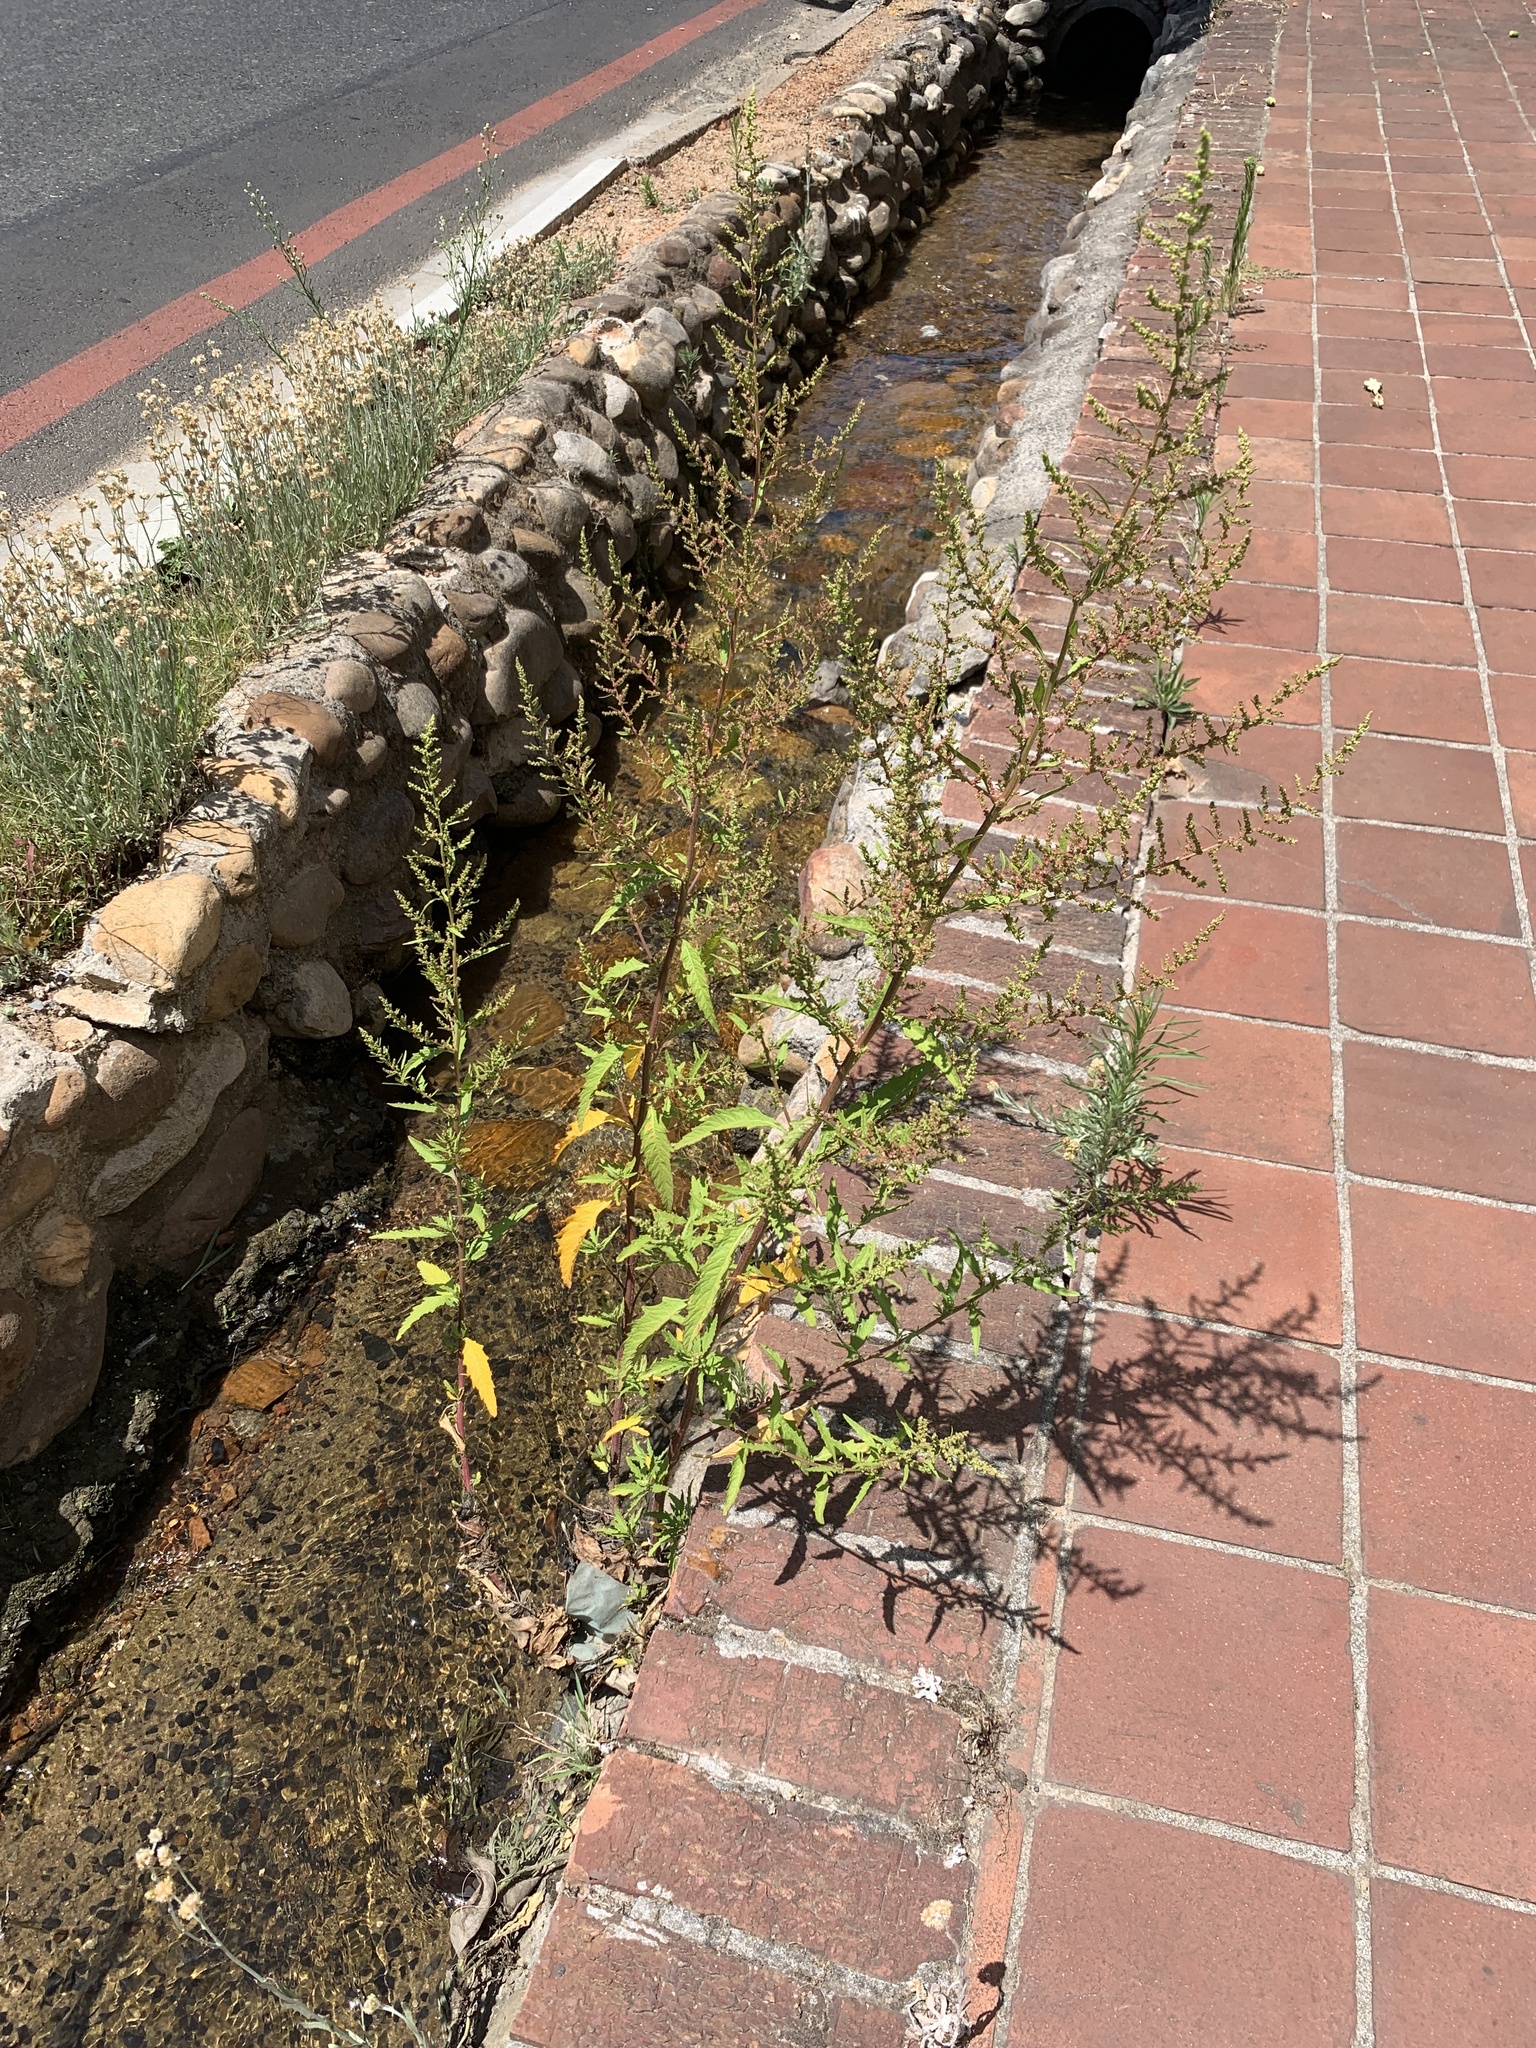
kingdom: Plantae
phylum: Tracheophyta
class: Magnoliopsida
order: Caryophyllales
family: Amaranthaceae
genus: Dysphania
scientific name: Dysphania ambrosioides
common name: Wormseed
